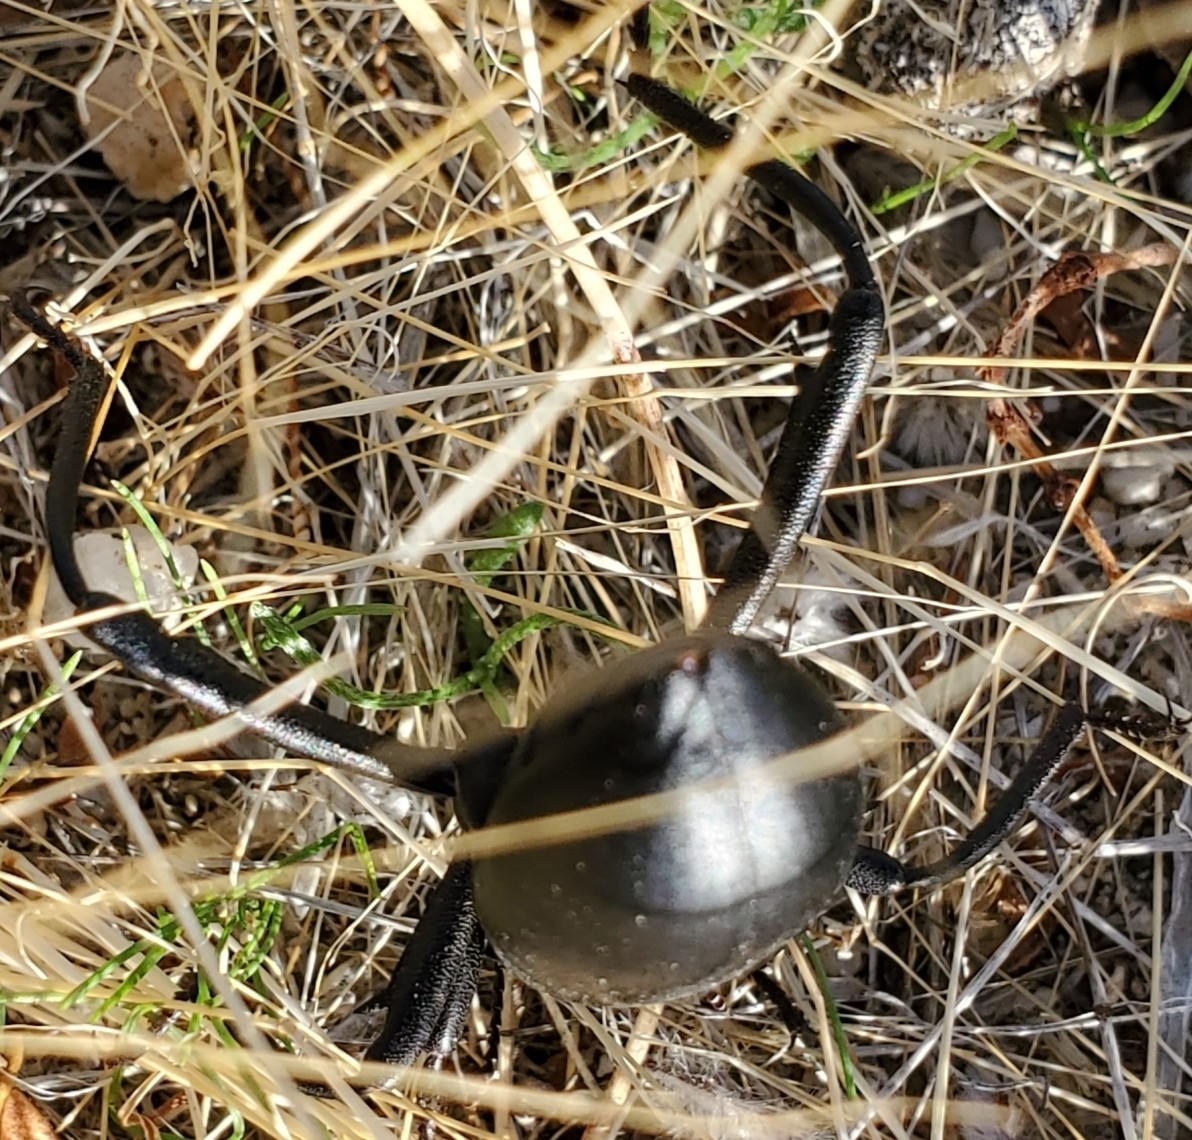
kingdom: Animalia
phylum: Arthropoda
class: Insecta
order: Coleoptera
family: Tenebrionidae
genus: Eleodes
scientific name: Eleodes armata
